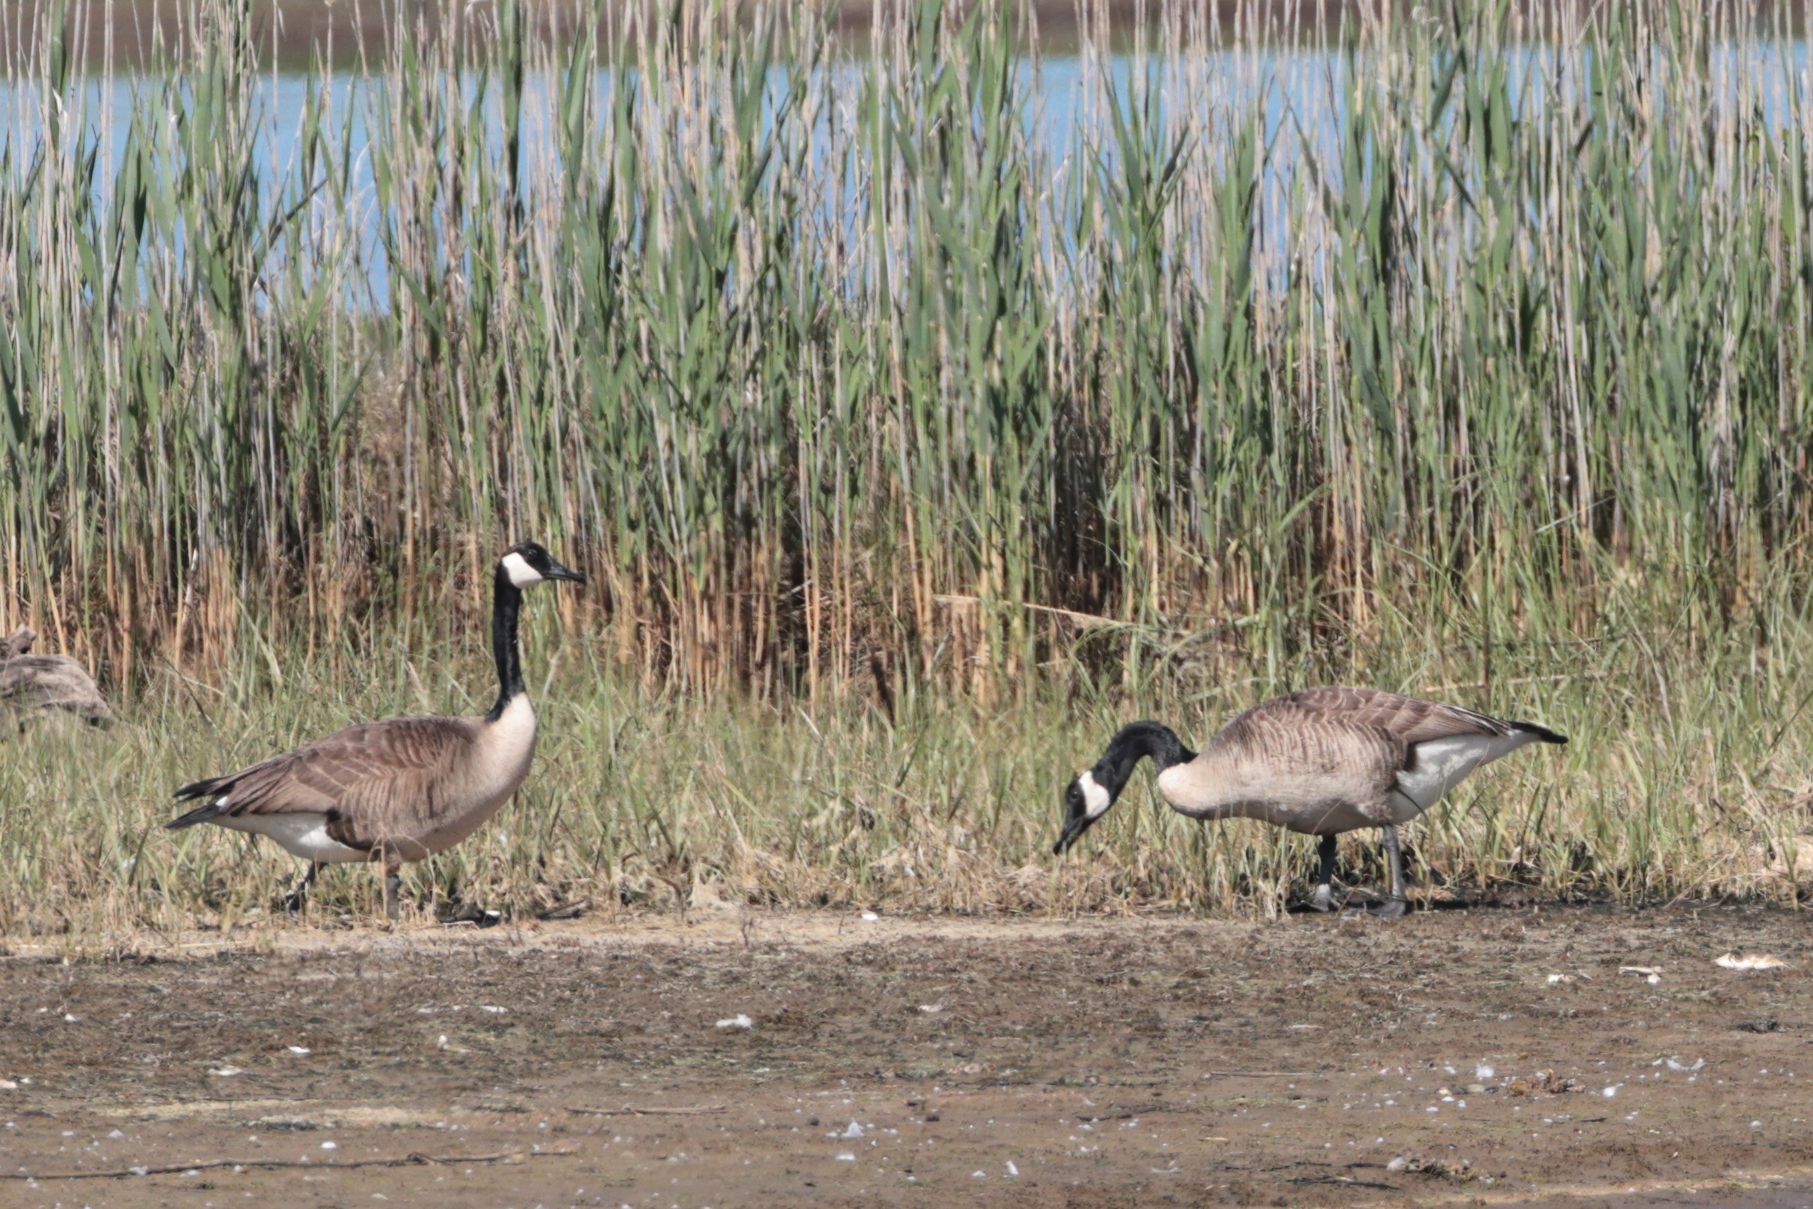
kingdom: Animalia
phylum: Chordata
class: Aves
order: Anseriformes
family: Anatidae
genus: Branta
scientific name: Branta canadensis
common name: Canada goose
